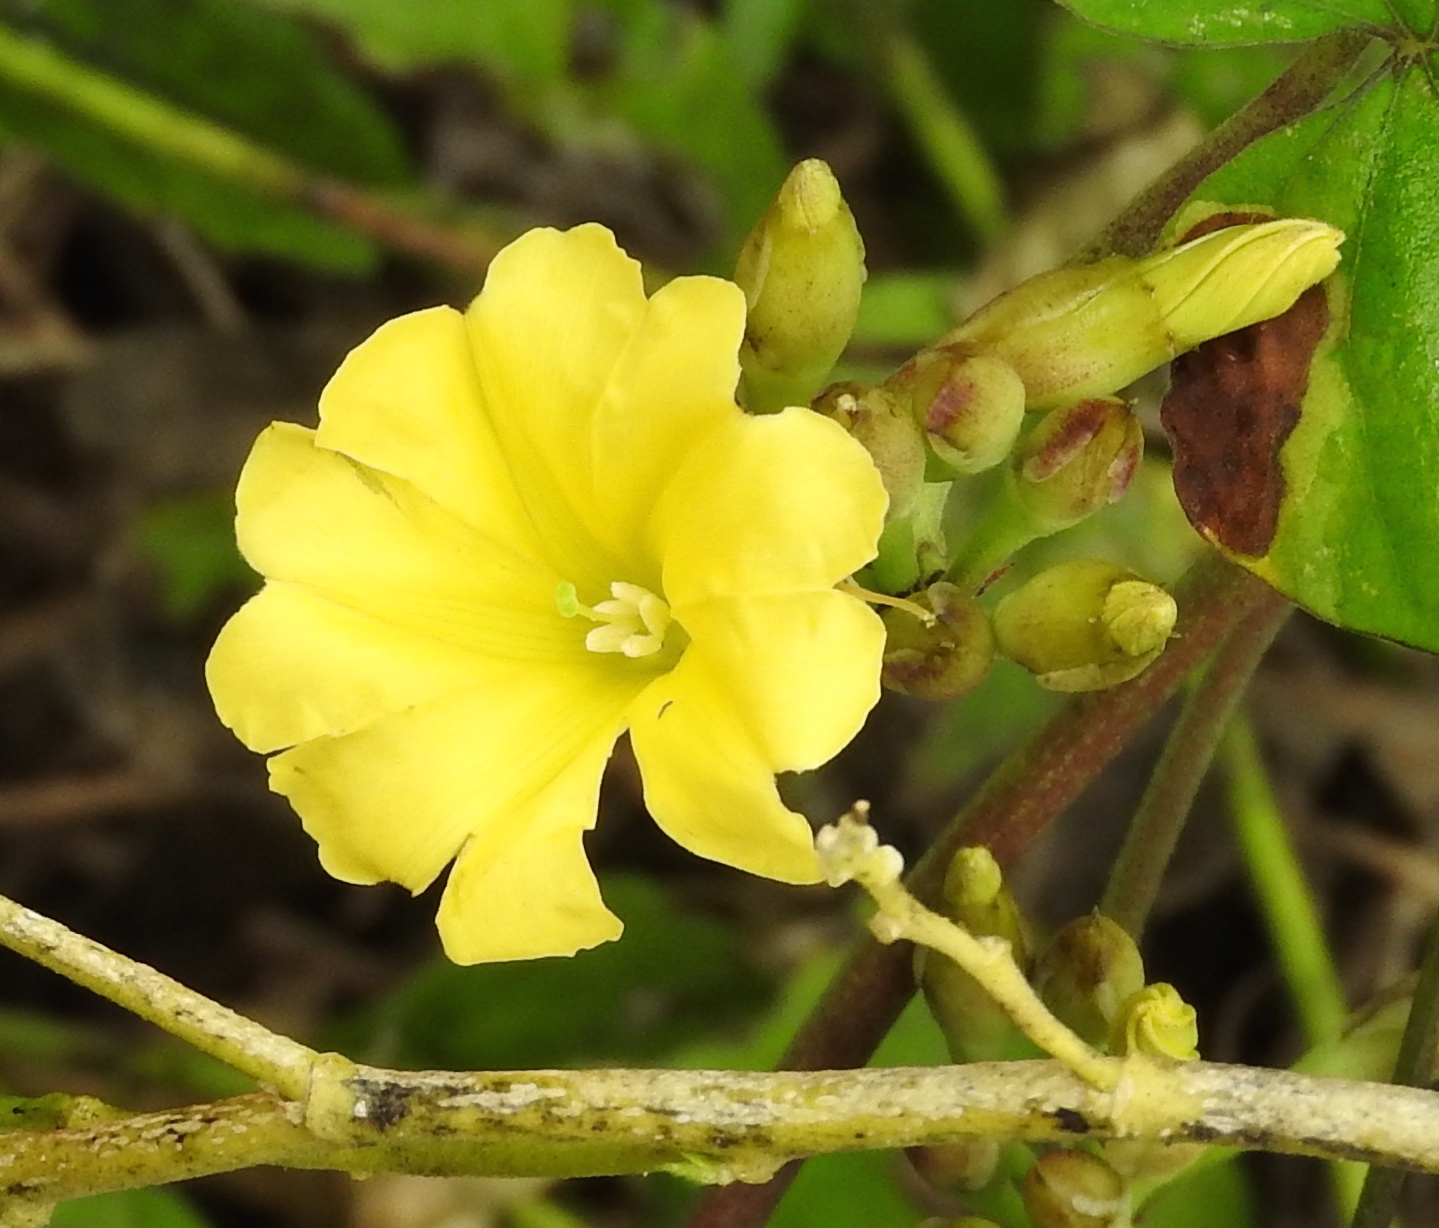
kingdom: Plantae
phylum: Tracheophyta
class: Magnoliopsida
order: Solanales
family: Convolvulaceae
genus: Camonea
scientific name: Camonea umbellata
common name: Hogvine
